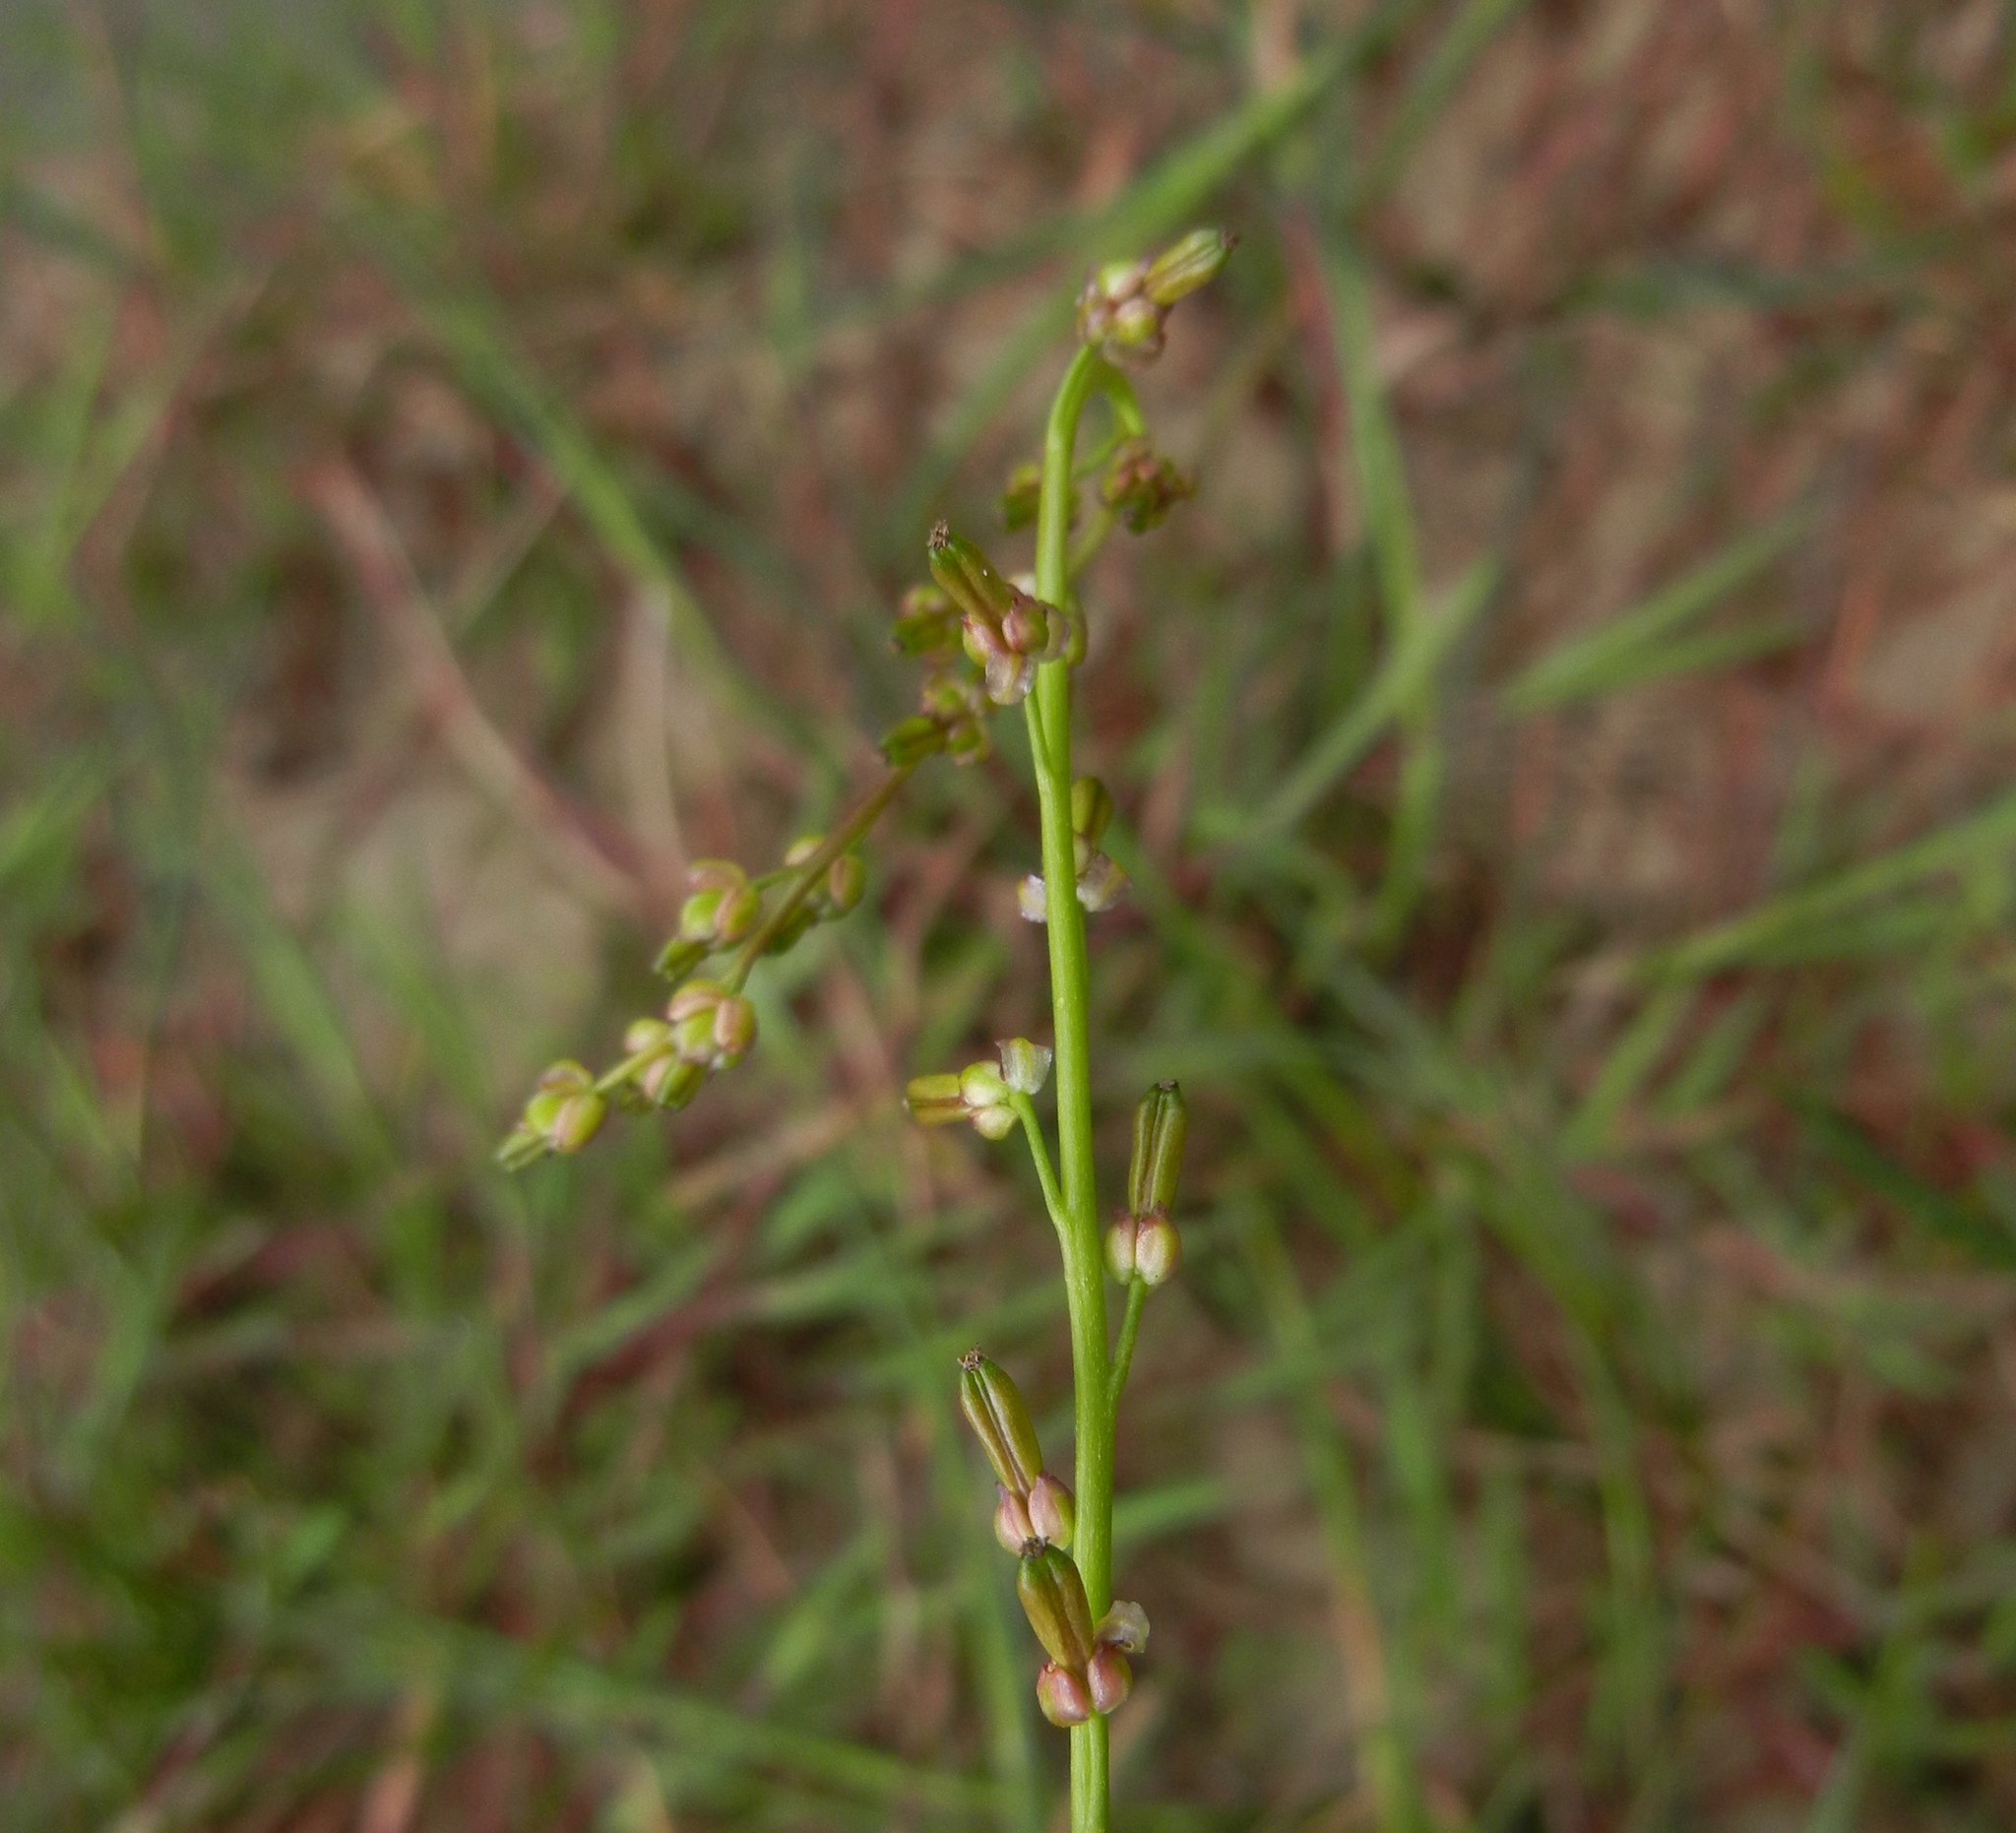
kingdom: Plantae
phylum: Tracheophyta
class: Liliopsida
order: Alismatales
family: Juncaginaceae
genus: Triglochin
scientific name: Triglochin palustris
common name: Marsh arrowgrass
